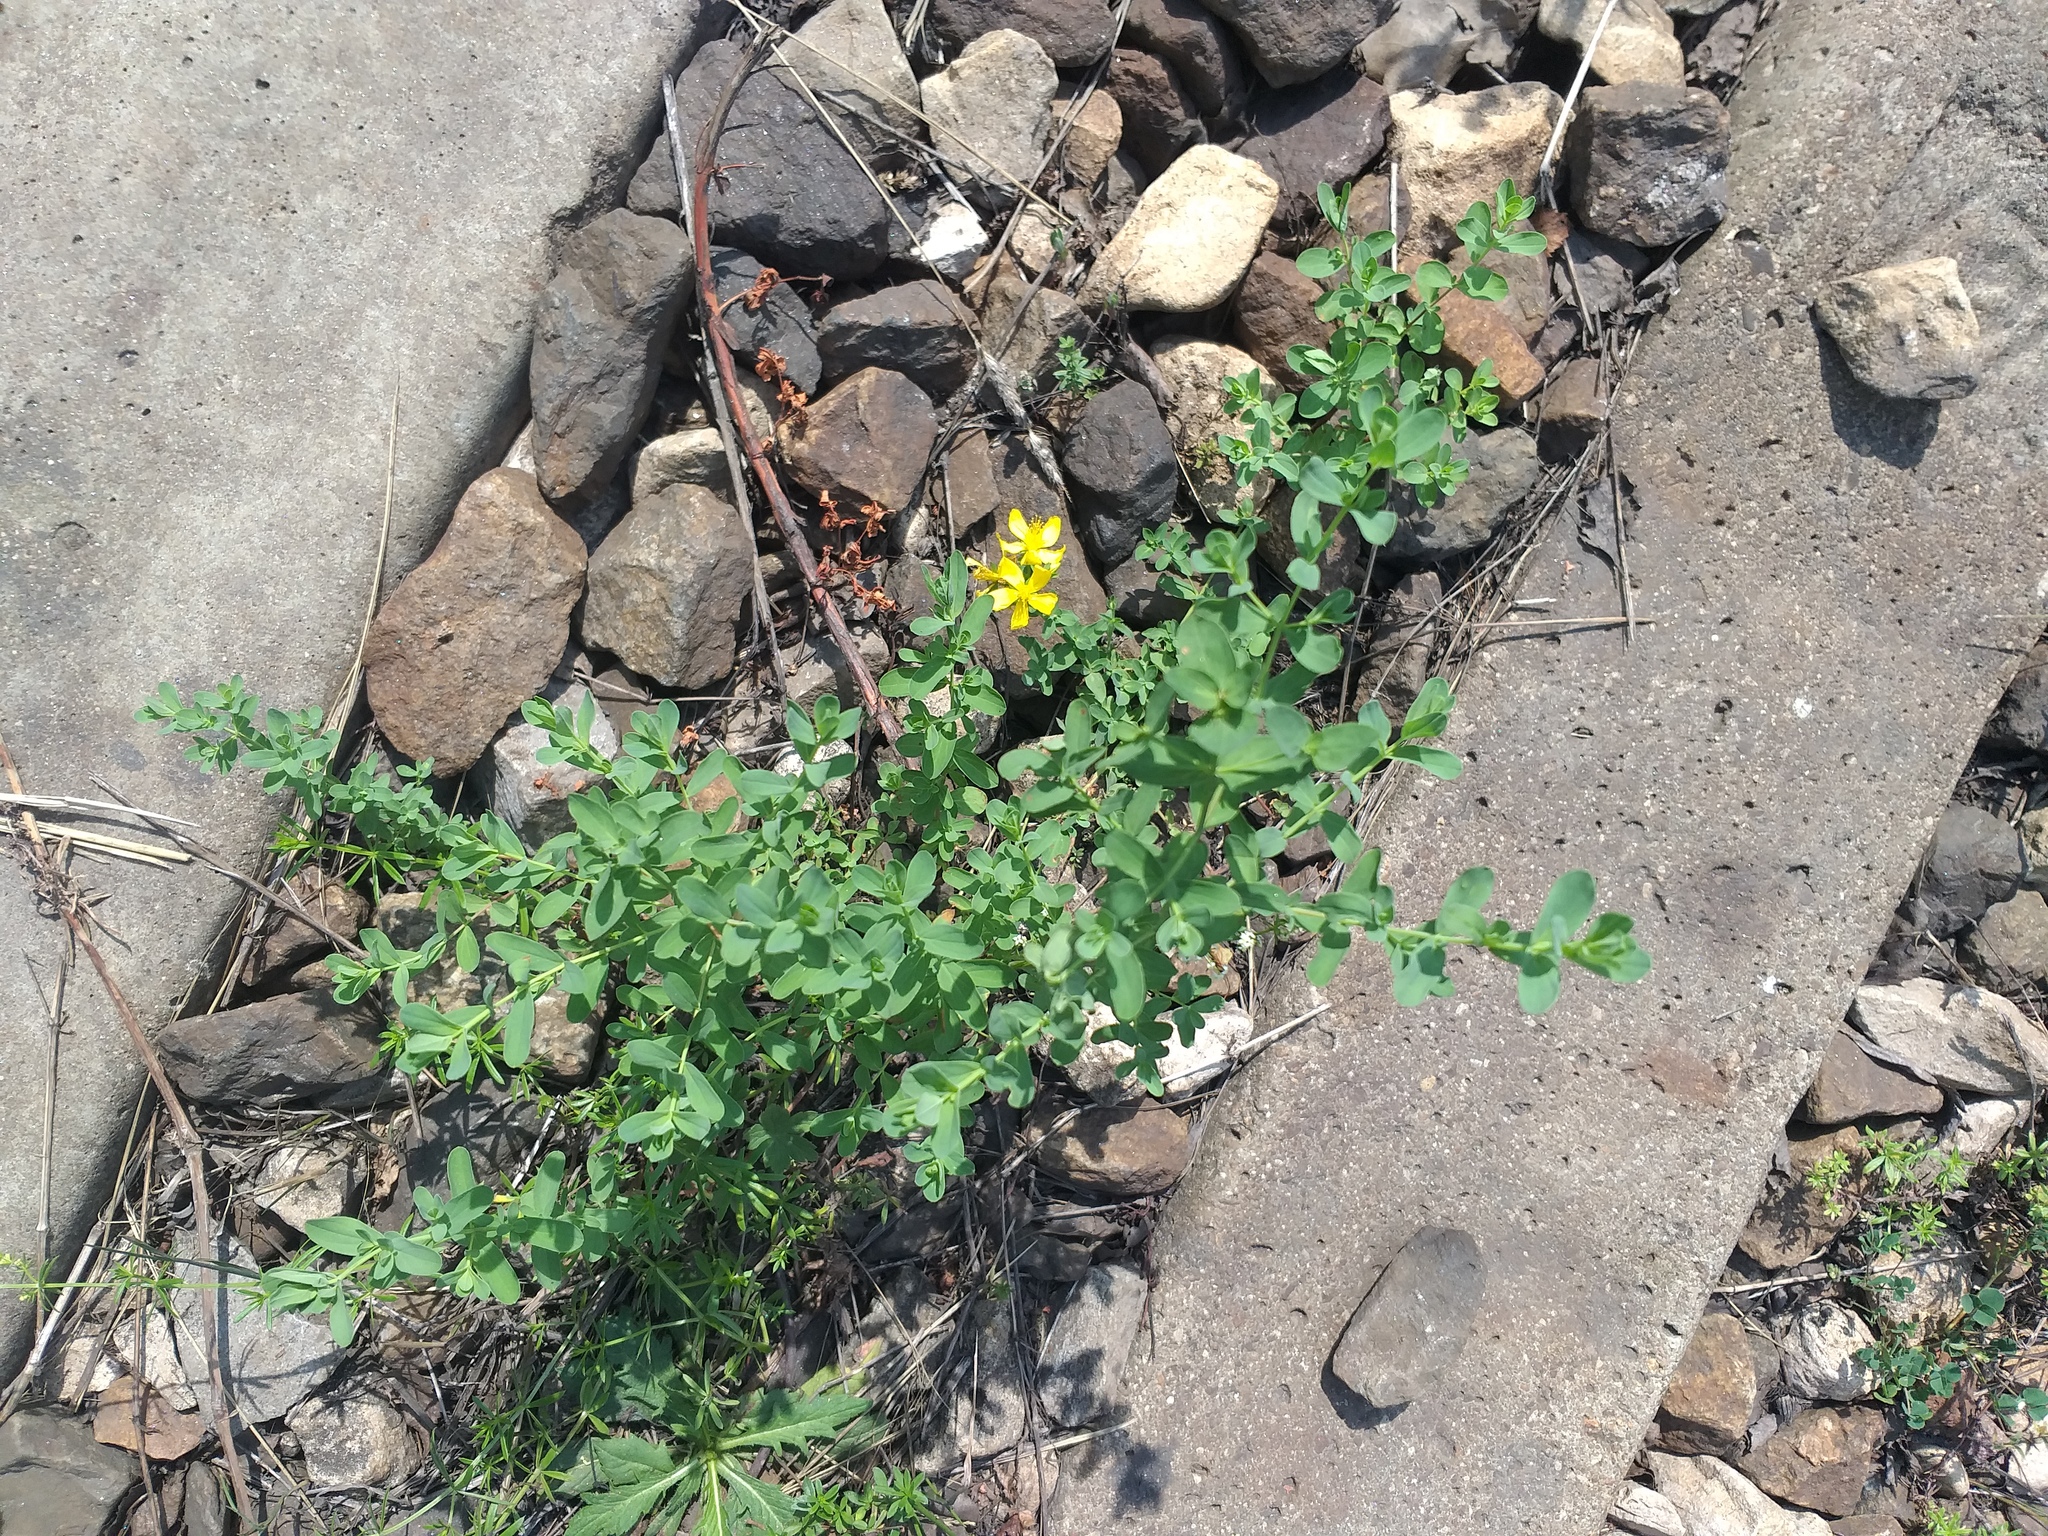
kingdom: Plantae
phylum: Tracheophyta
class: Magnoliopsida
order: Malpighiales
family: Hypericaceae
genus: Hypericum
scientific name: Hypericum perforatum
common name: Common st. johnswort
